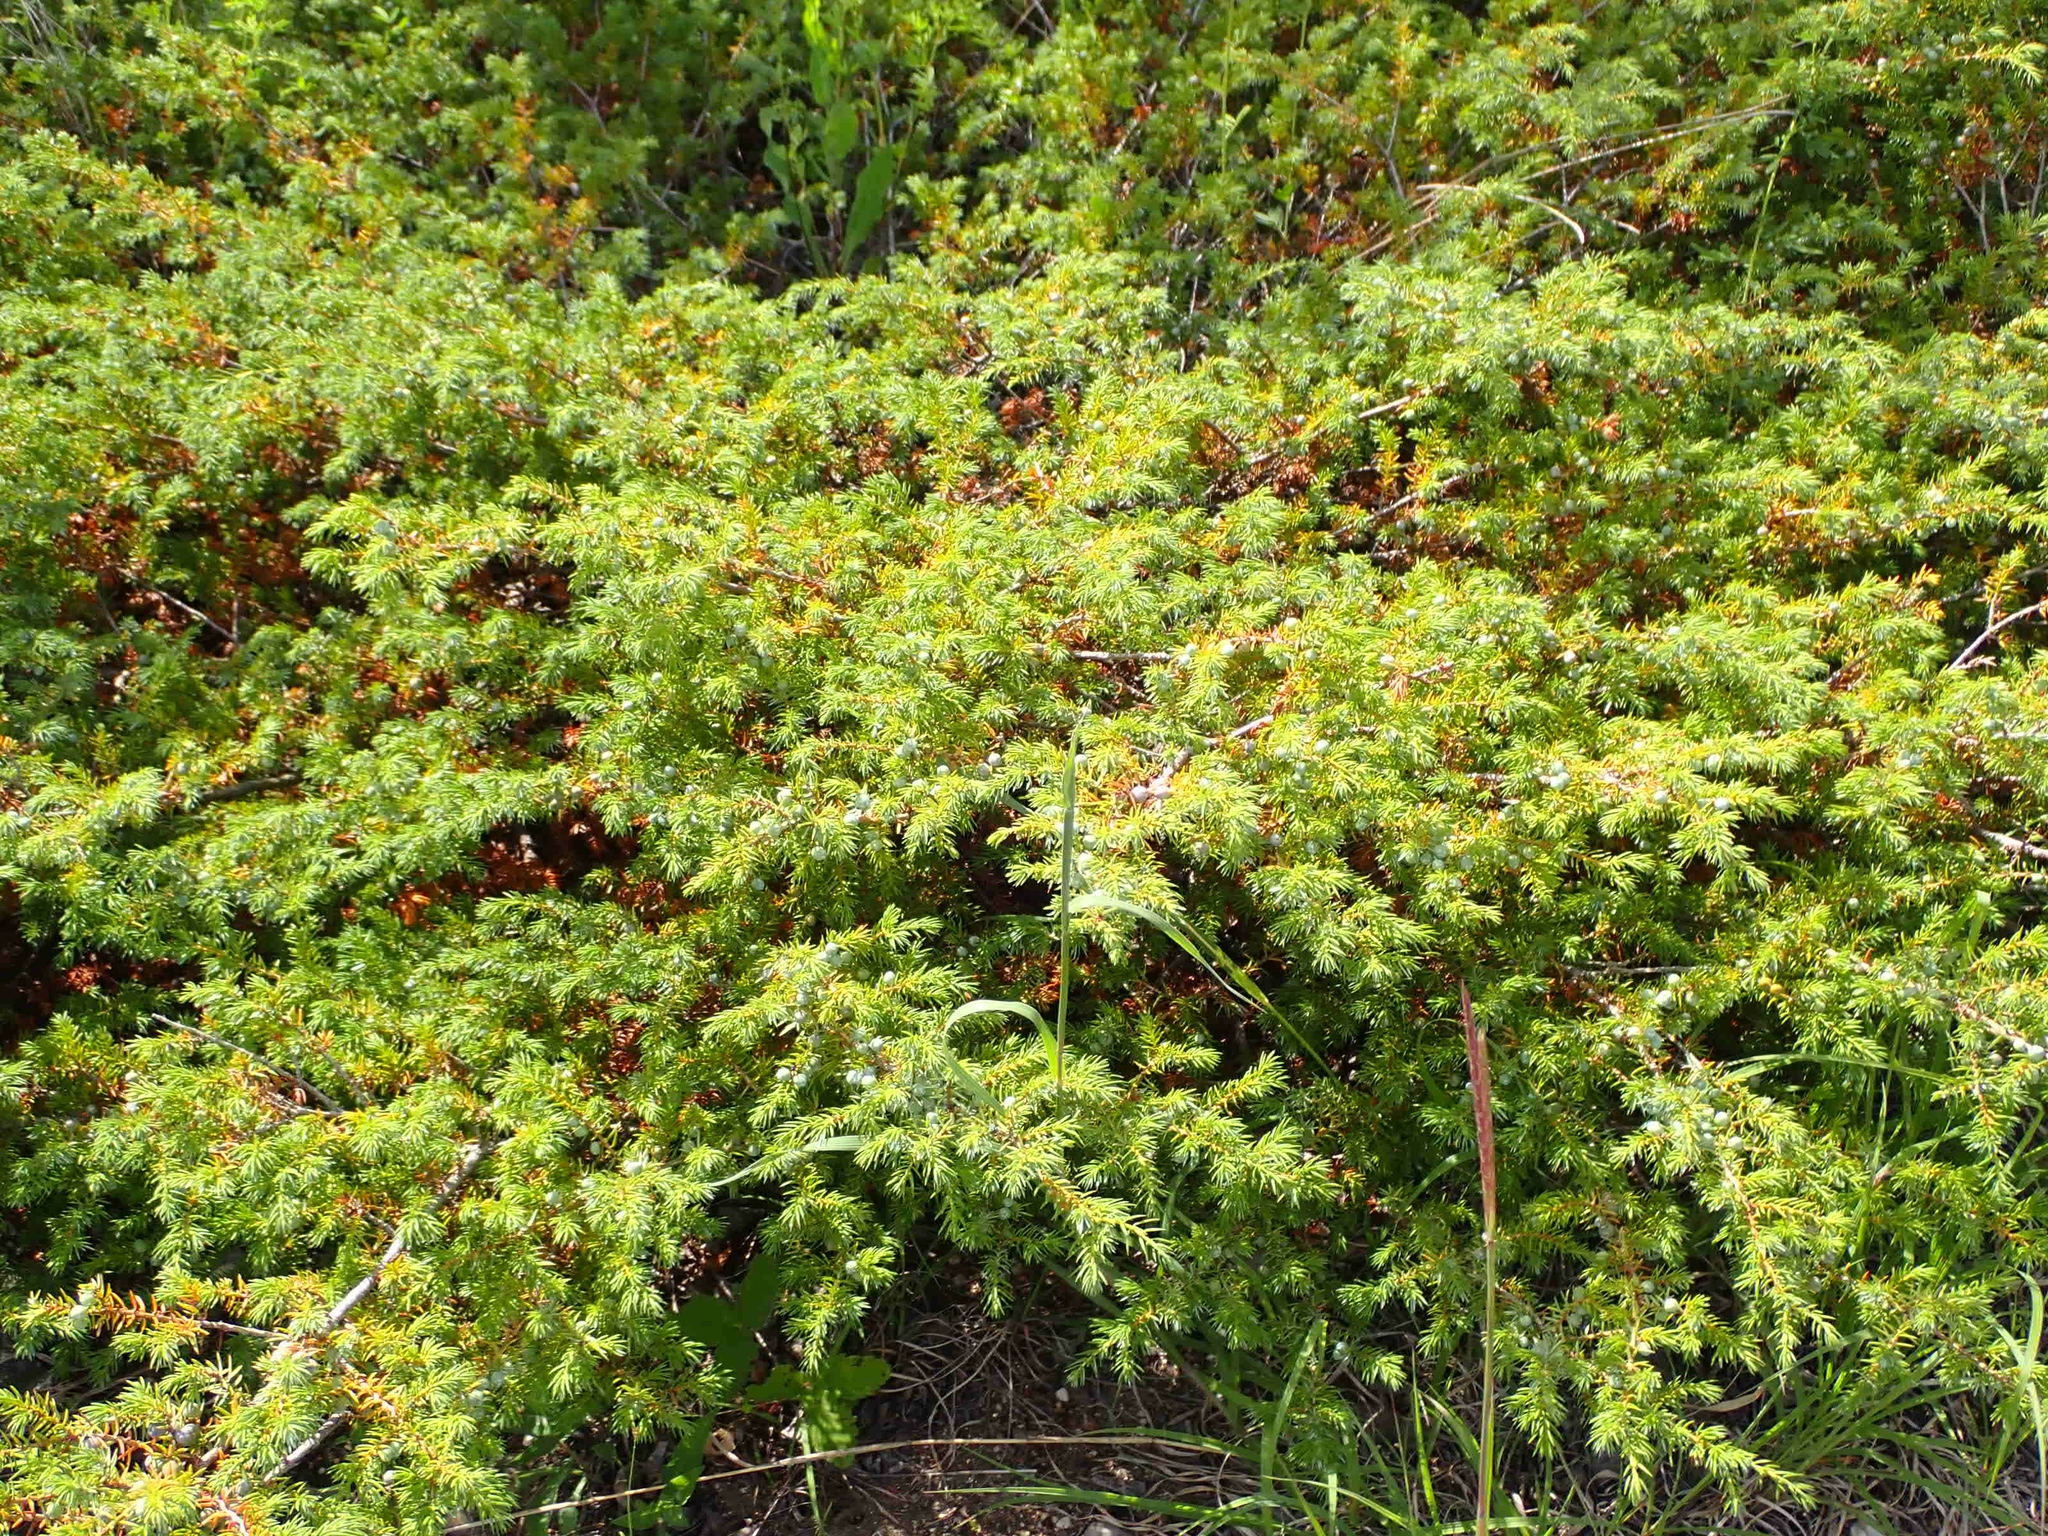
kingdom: Plantae
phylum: Tracheophyta
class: Pinopsida
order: Pinales
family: Cupressaceae
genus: Juniperus
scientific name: Juniperus communis
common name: Common juniper
